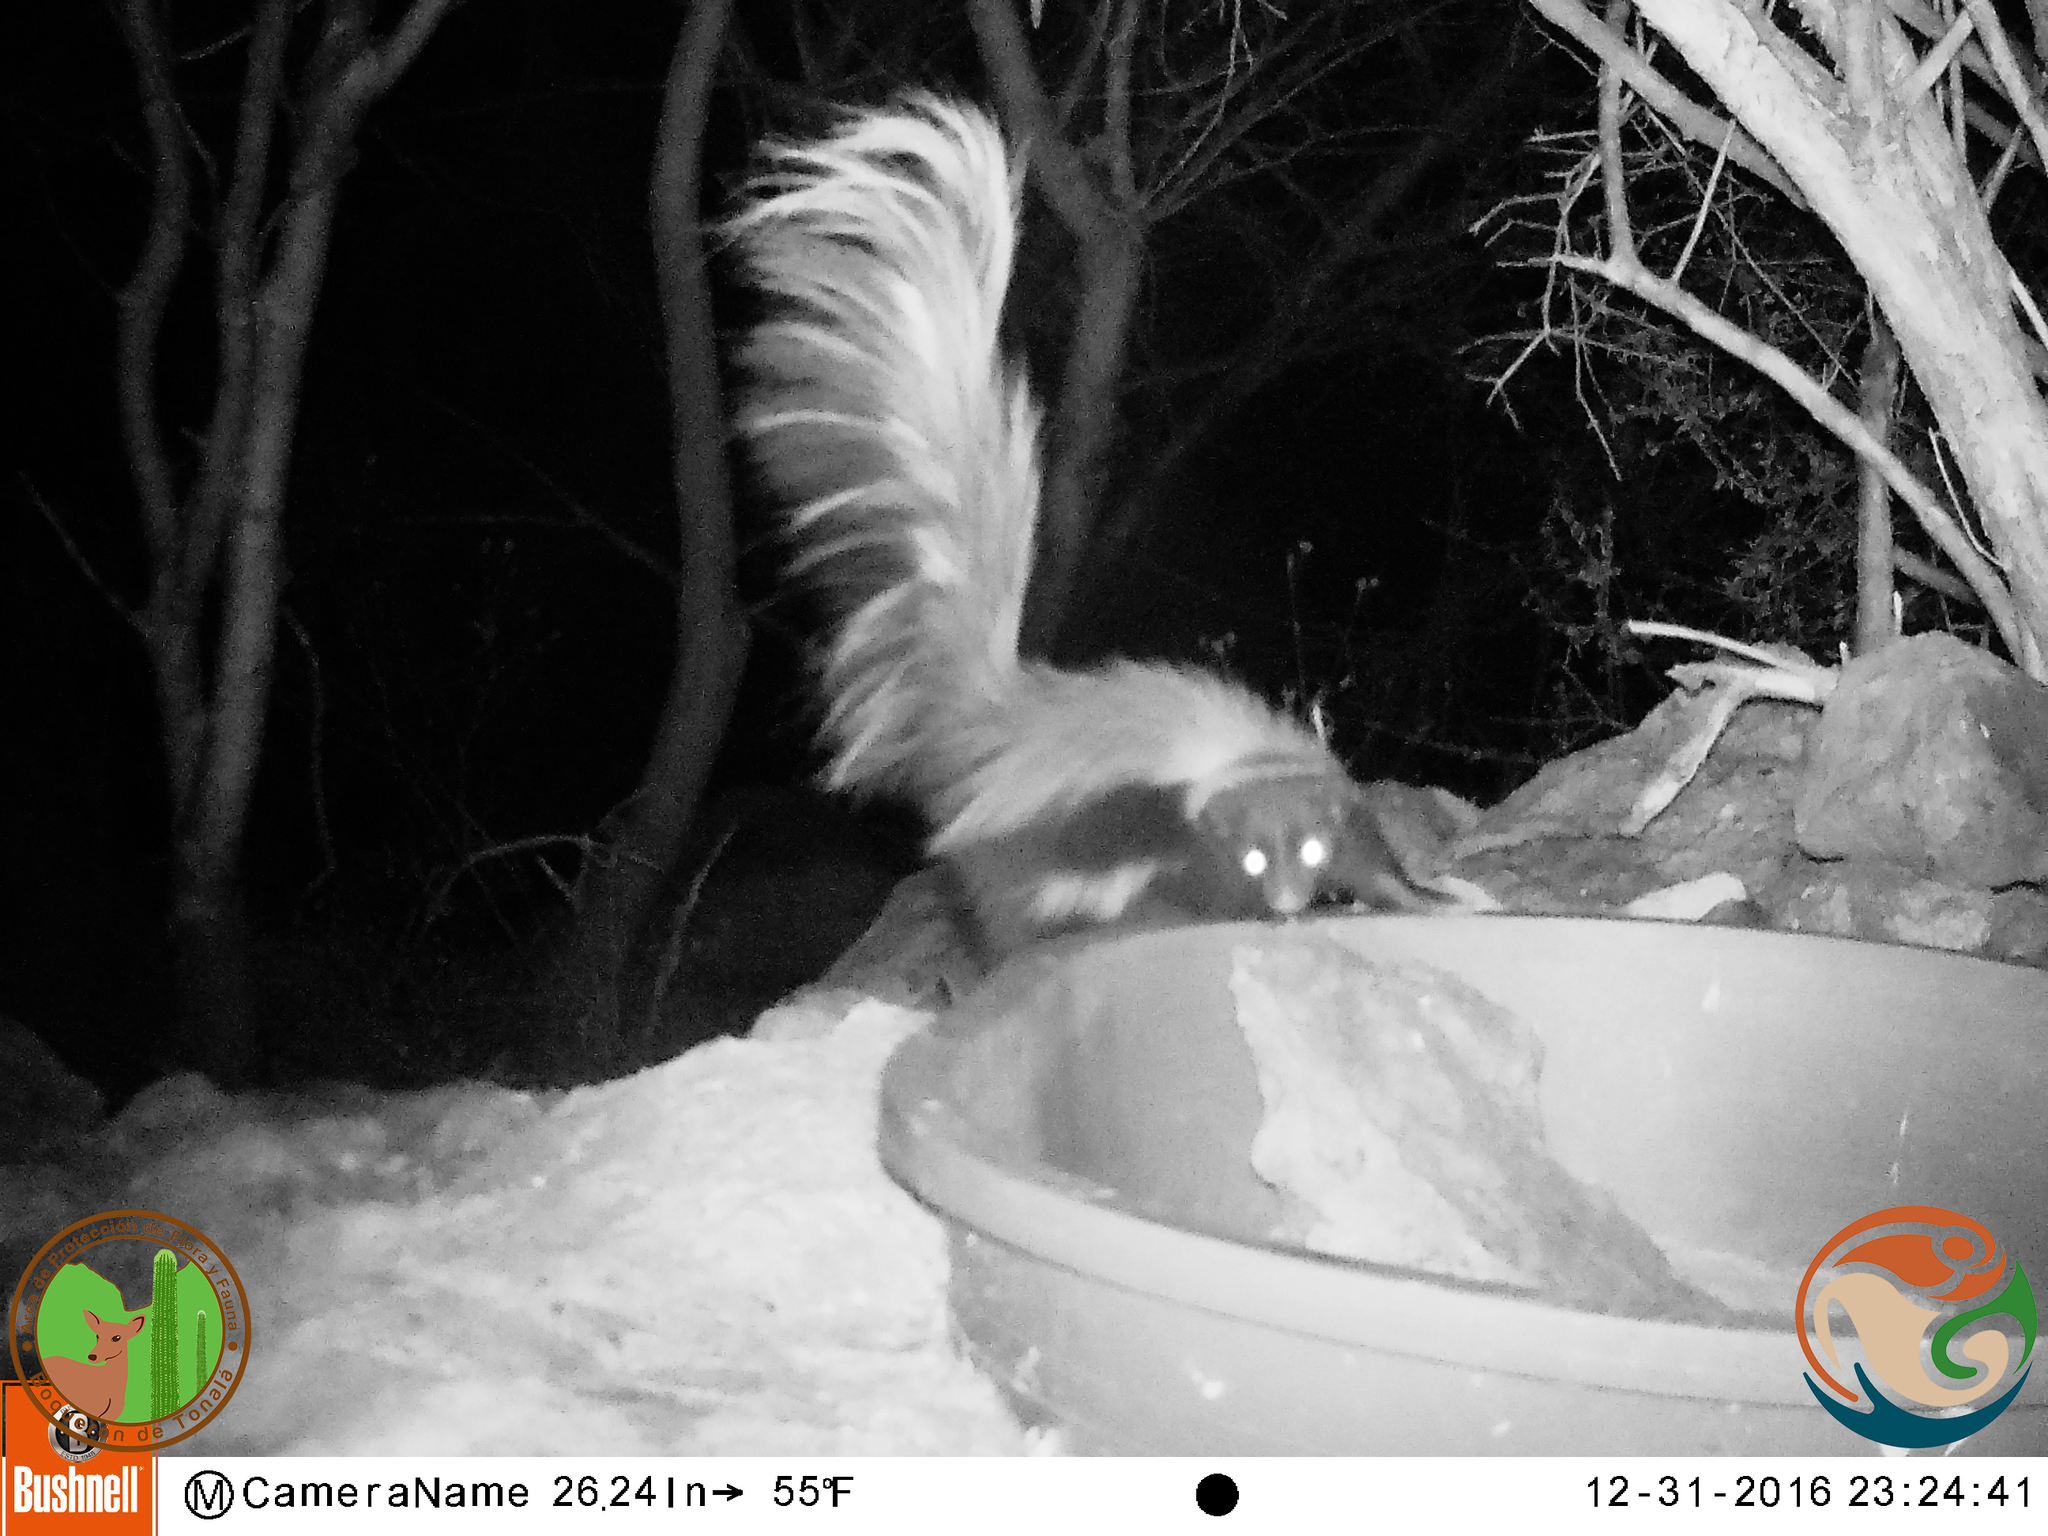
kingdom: Animalia
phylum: Chordata
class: Mammalia
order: Carnivora
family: Mephitidae
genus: Mephitis
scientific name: Mephitis macroura
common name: Hooded skunk
